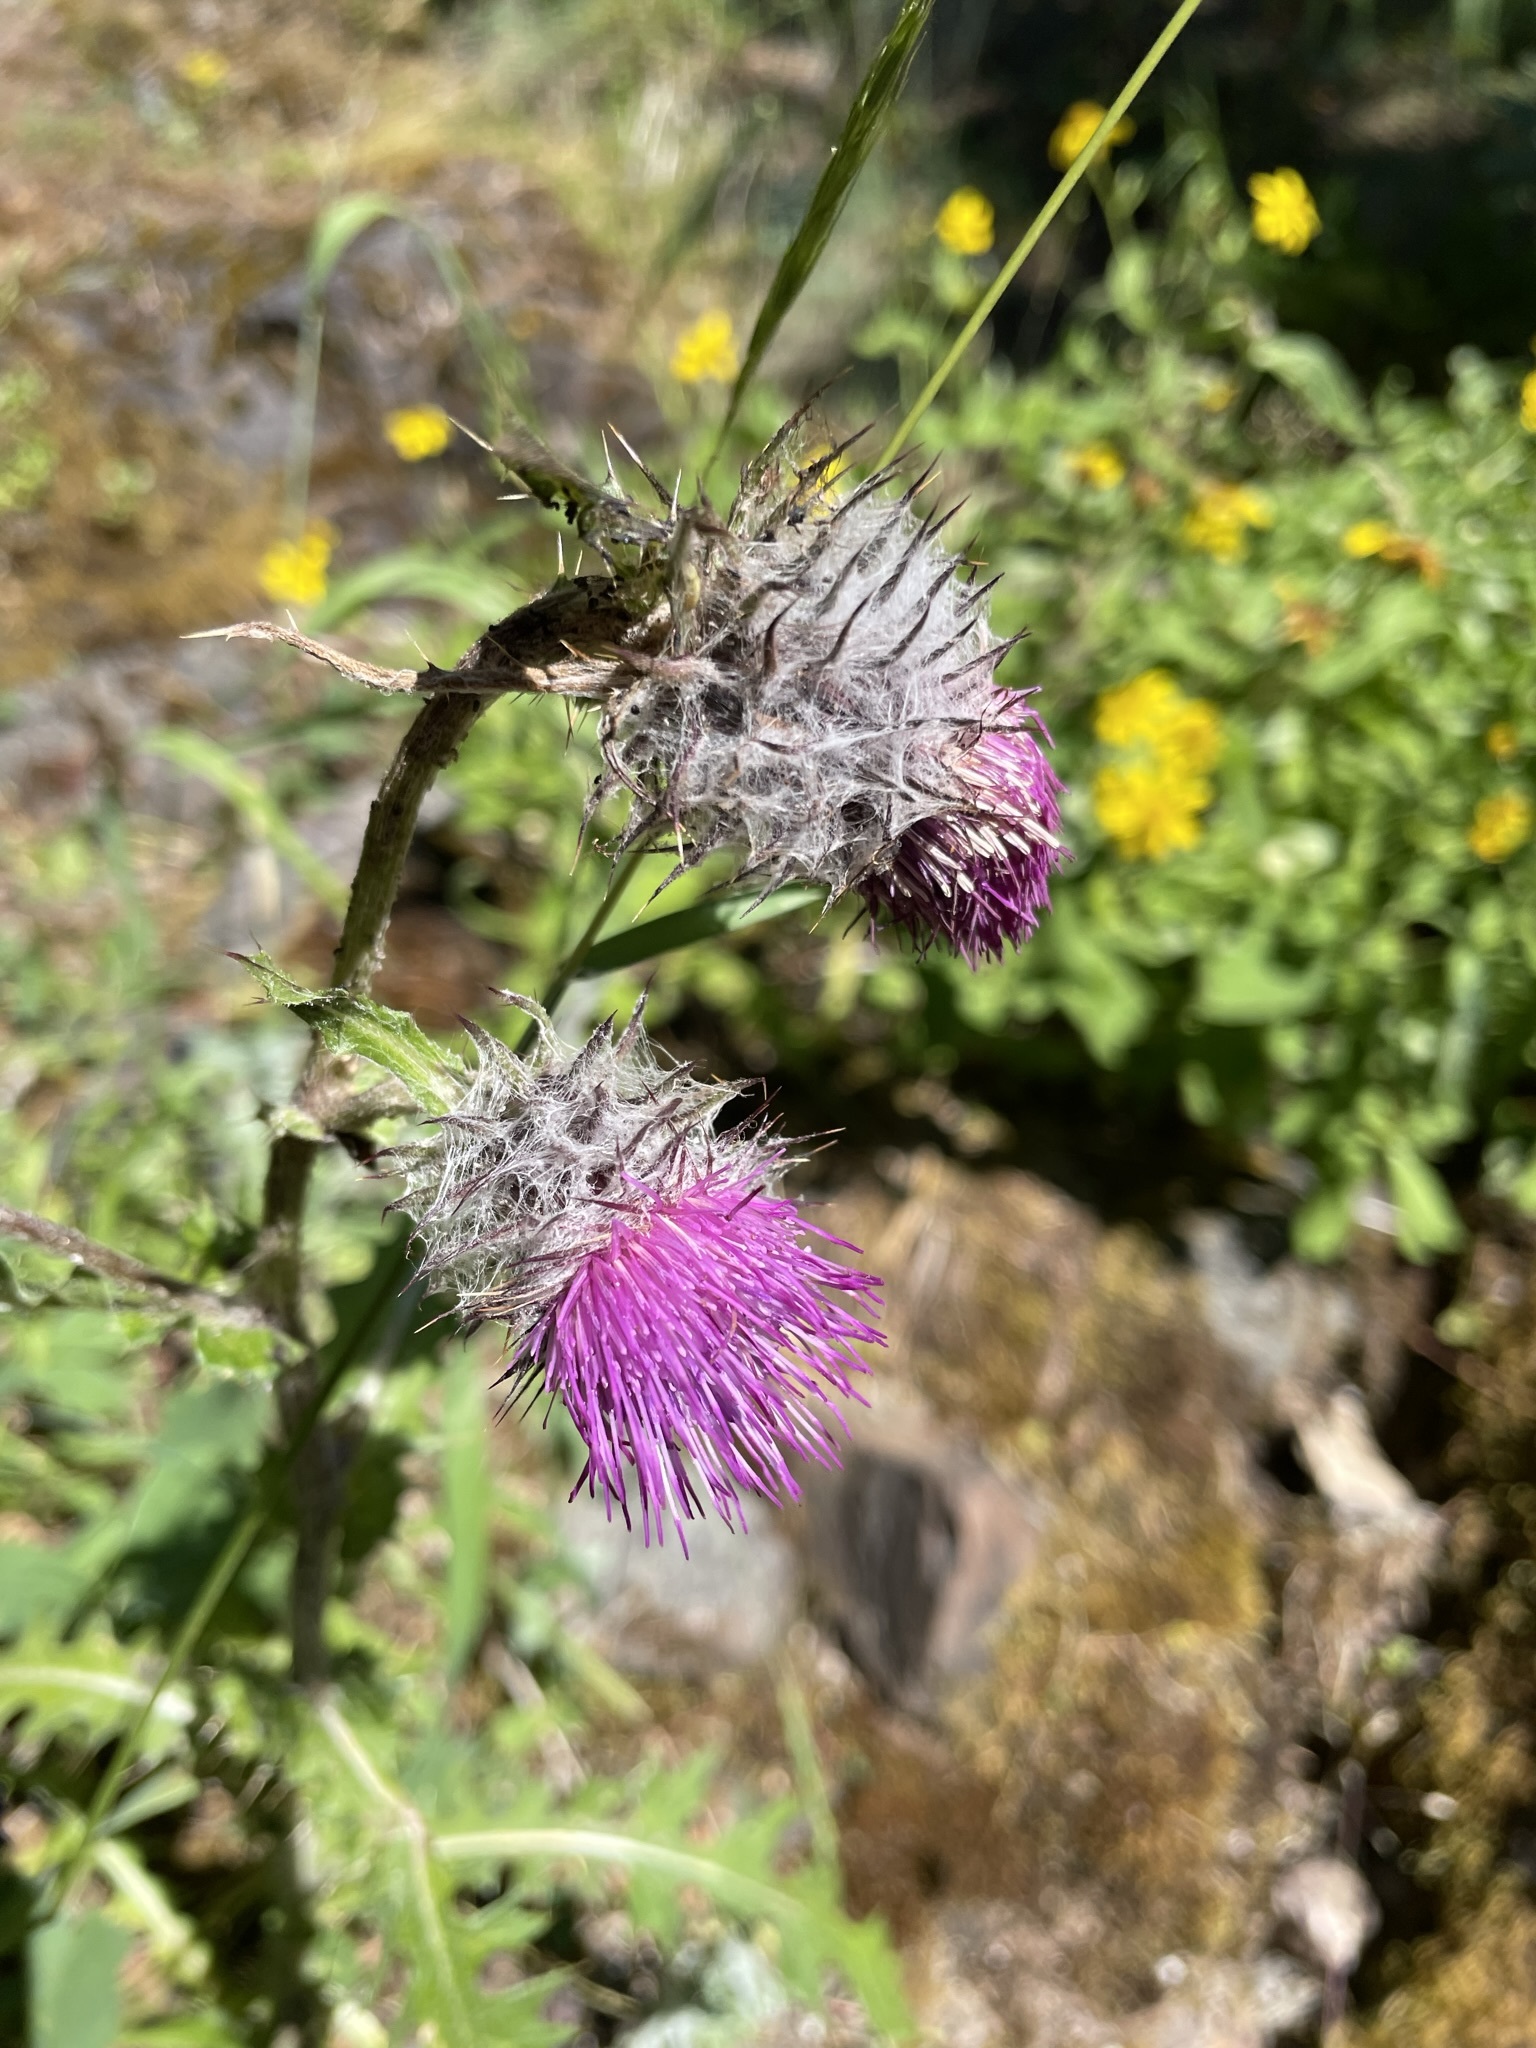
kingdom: Plantae
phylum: Tracheophyta
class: Magnoliopsida
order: Asterales
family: Asteraceae
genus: Cirsium
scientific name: Cirsium edule
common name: Indian thistle
